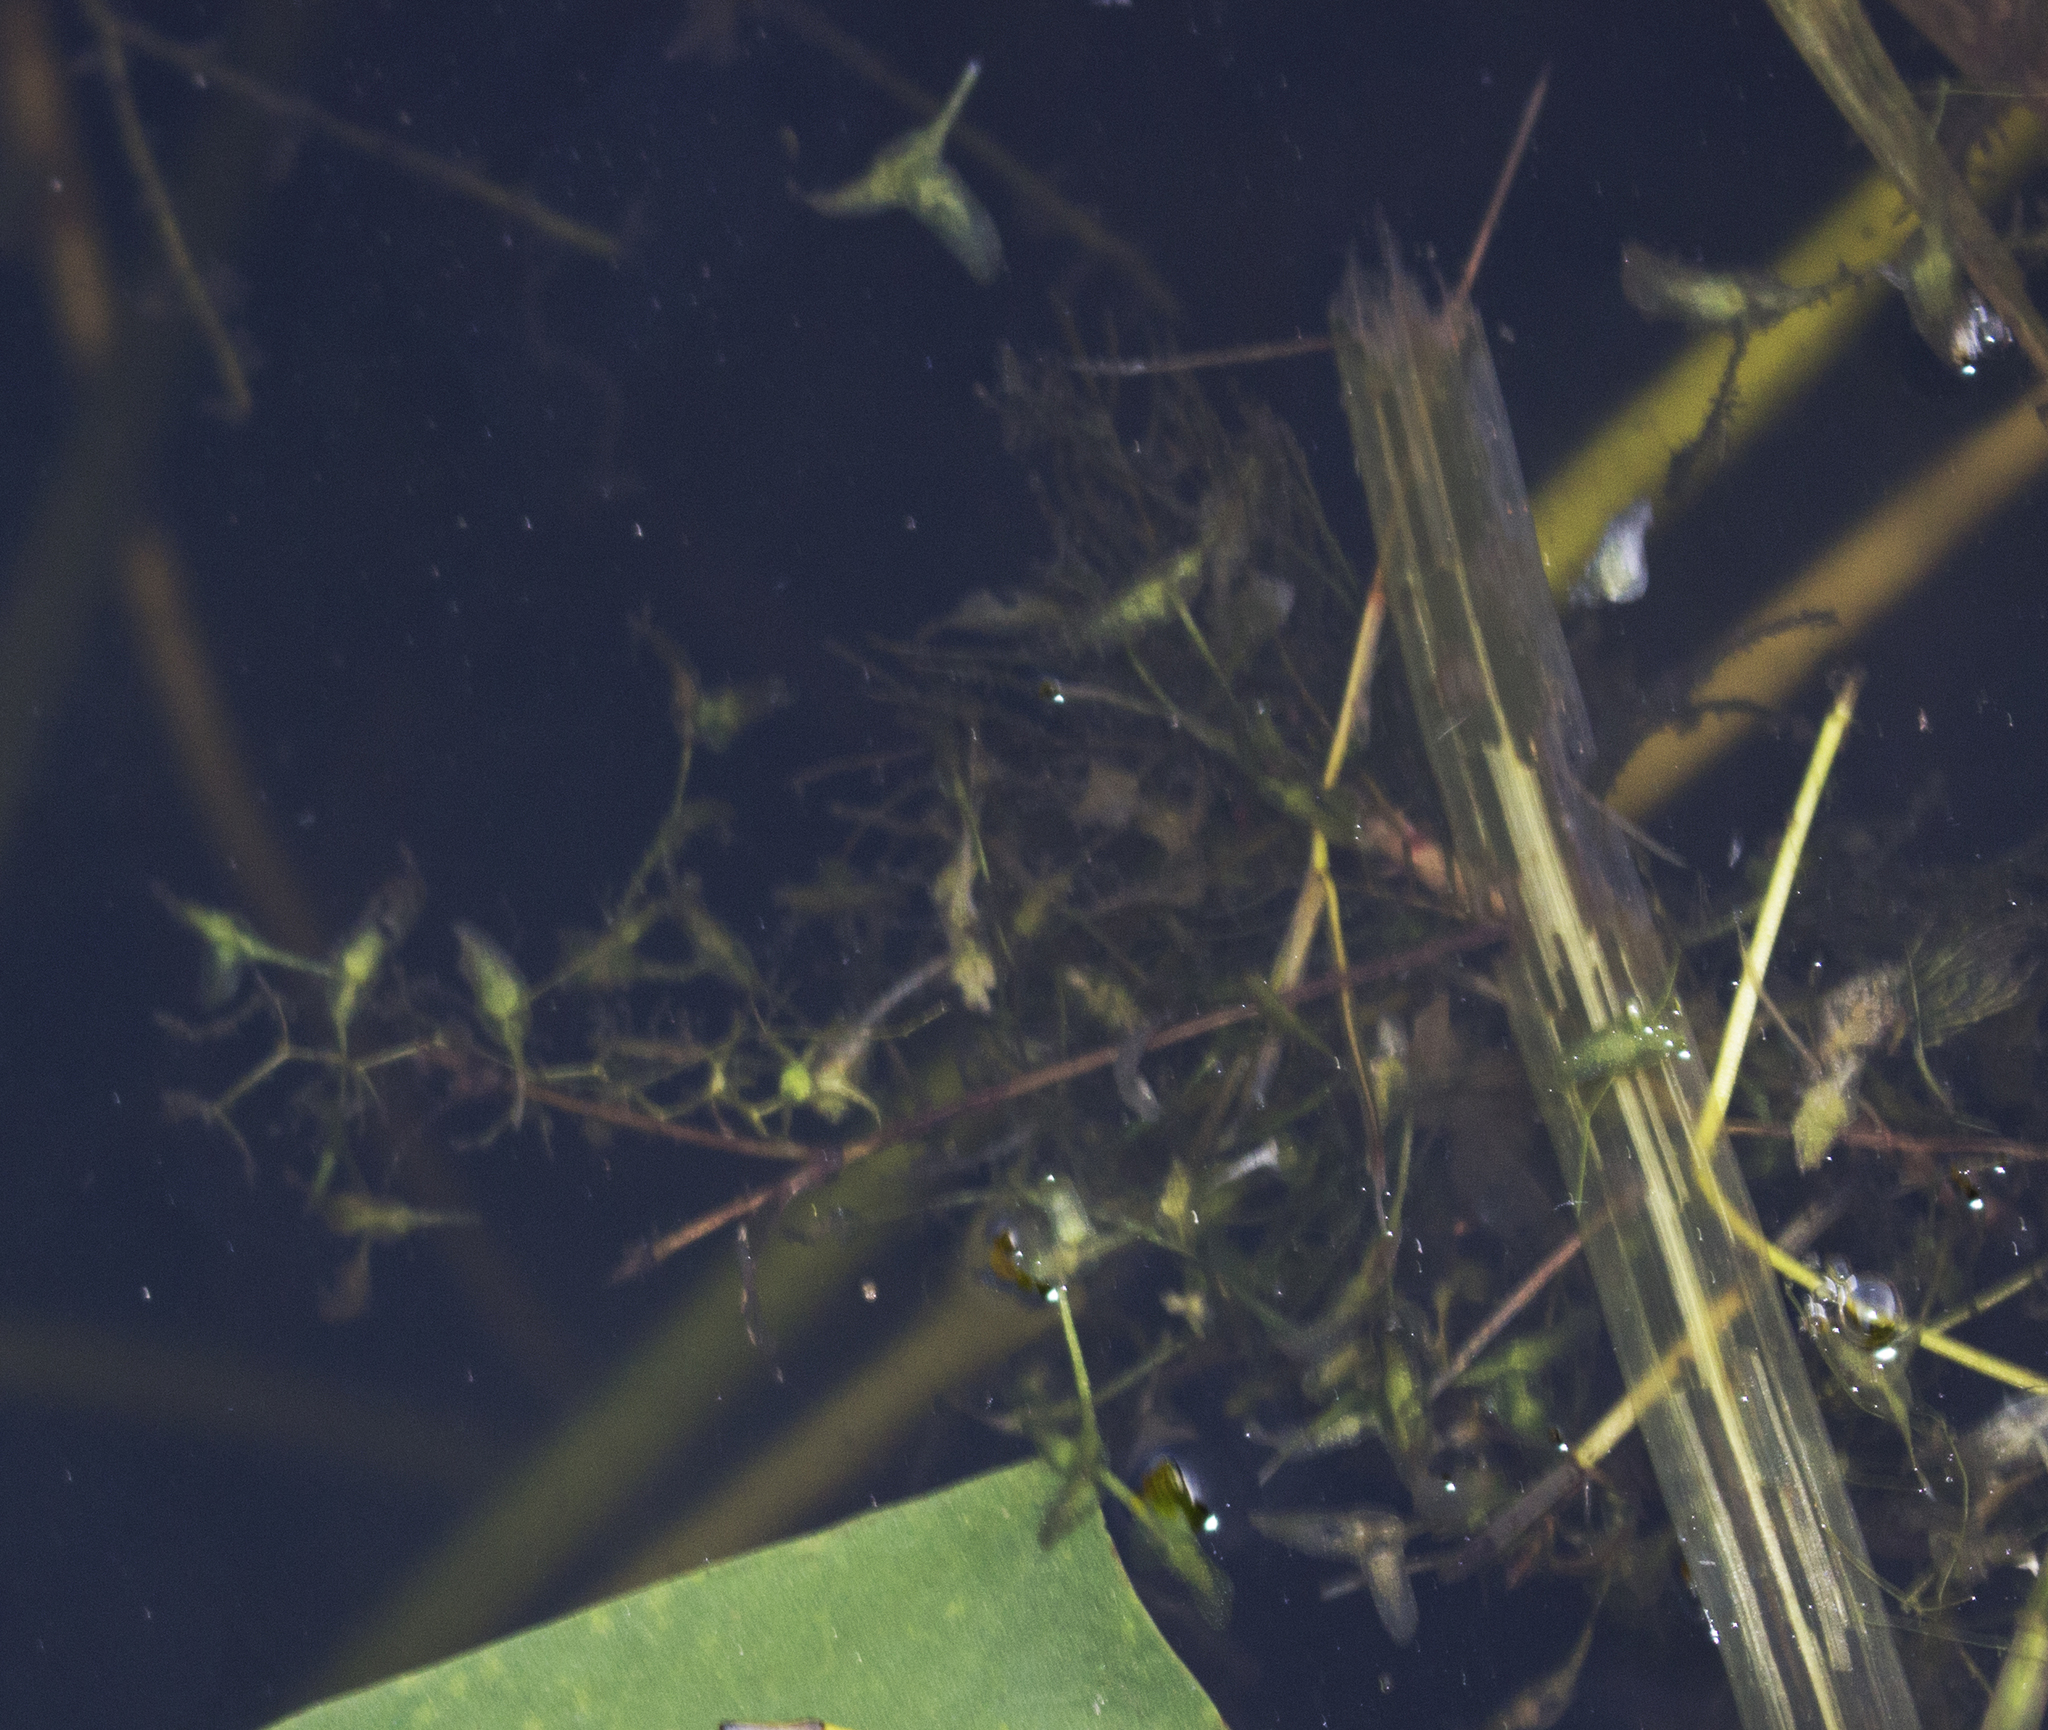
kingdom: Plantae
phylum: Tracheophyta
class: Liliopsida
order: Alismatales
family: Araceae
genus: Lemna
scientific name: Lemna trisulca
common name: Ivy-leaved duckweed
